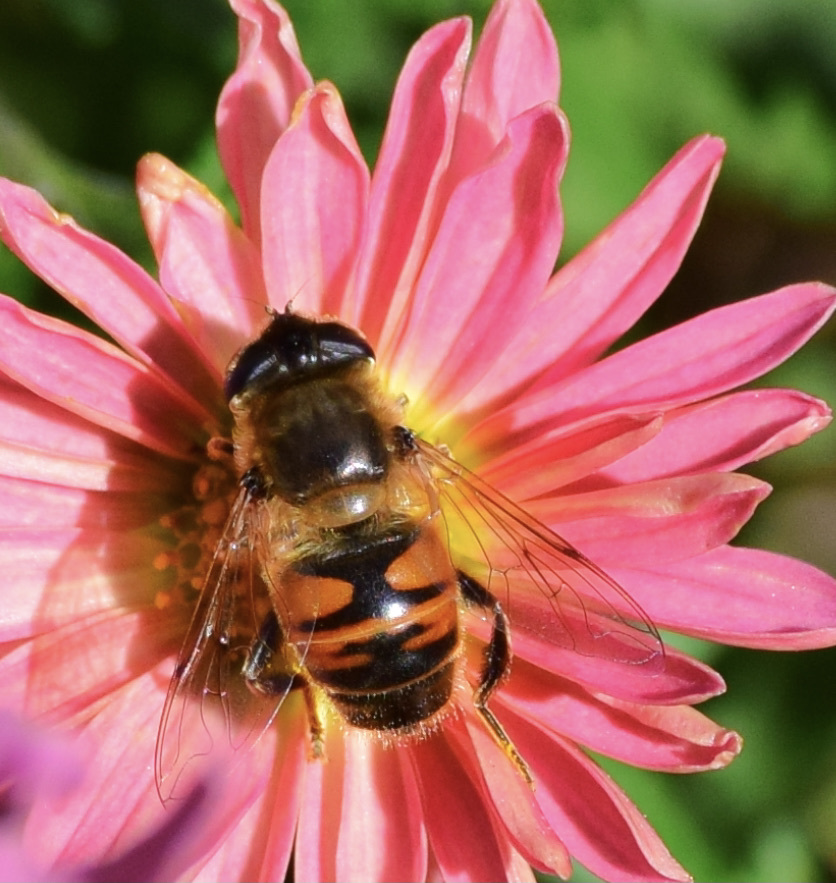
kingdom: Animalia
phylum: Arthropoda
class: Insecta
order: Diptera
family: Syrphidae
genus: Eristalis
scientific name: Eristalis tenax
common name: Drone fly
